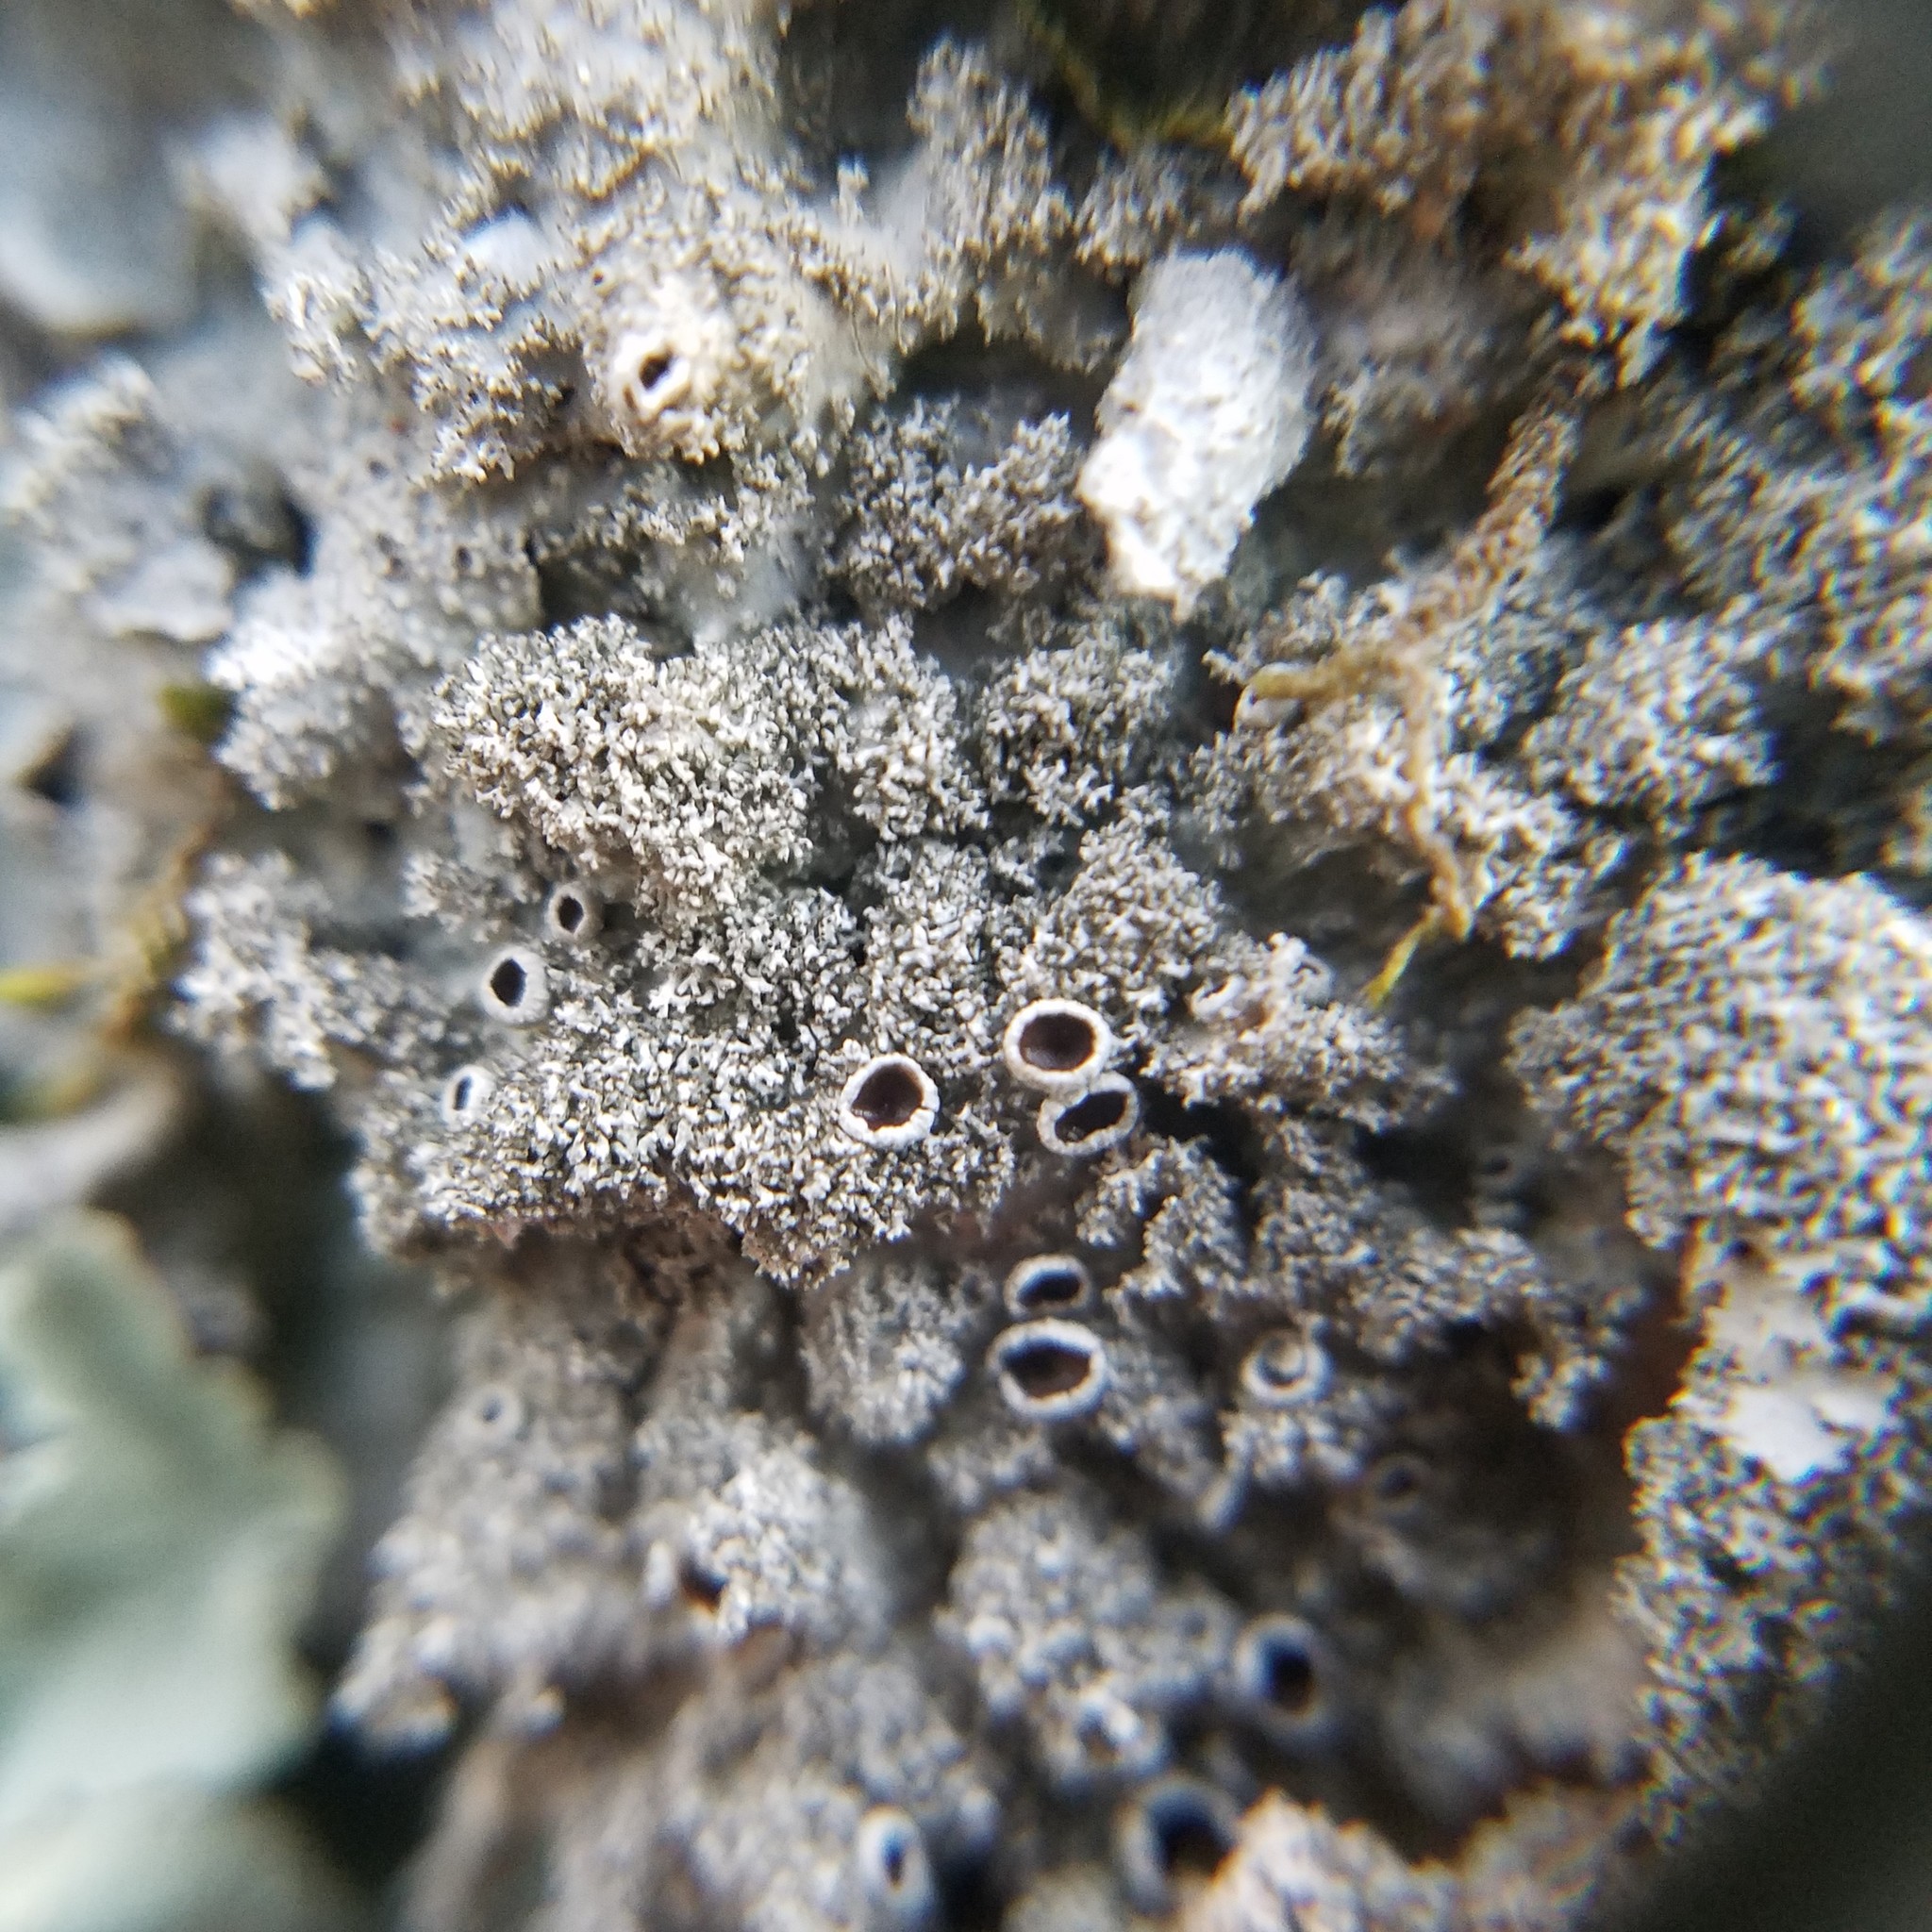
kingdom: Fungi
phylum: Ascomycota
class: Lecanoromycetes
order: Lecanorales
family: Parmeliaceae
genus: Punctelia
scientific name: Punctelia rudecta
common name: Rough speckled shield lichen
